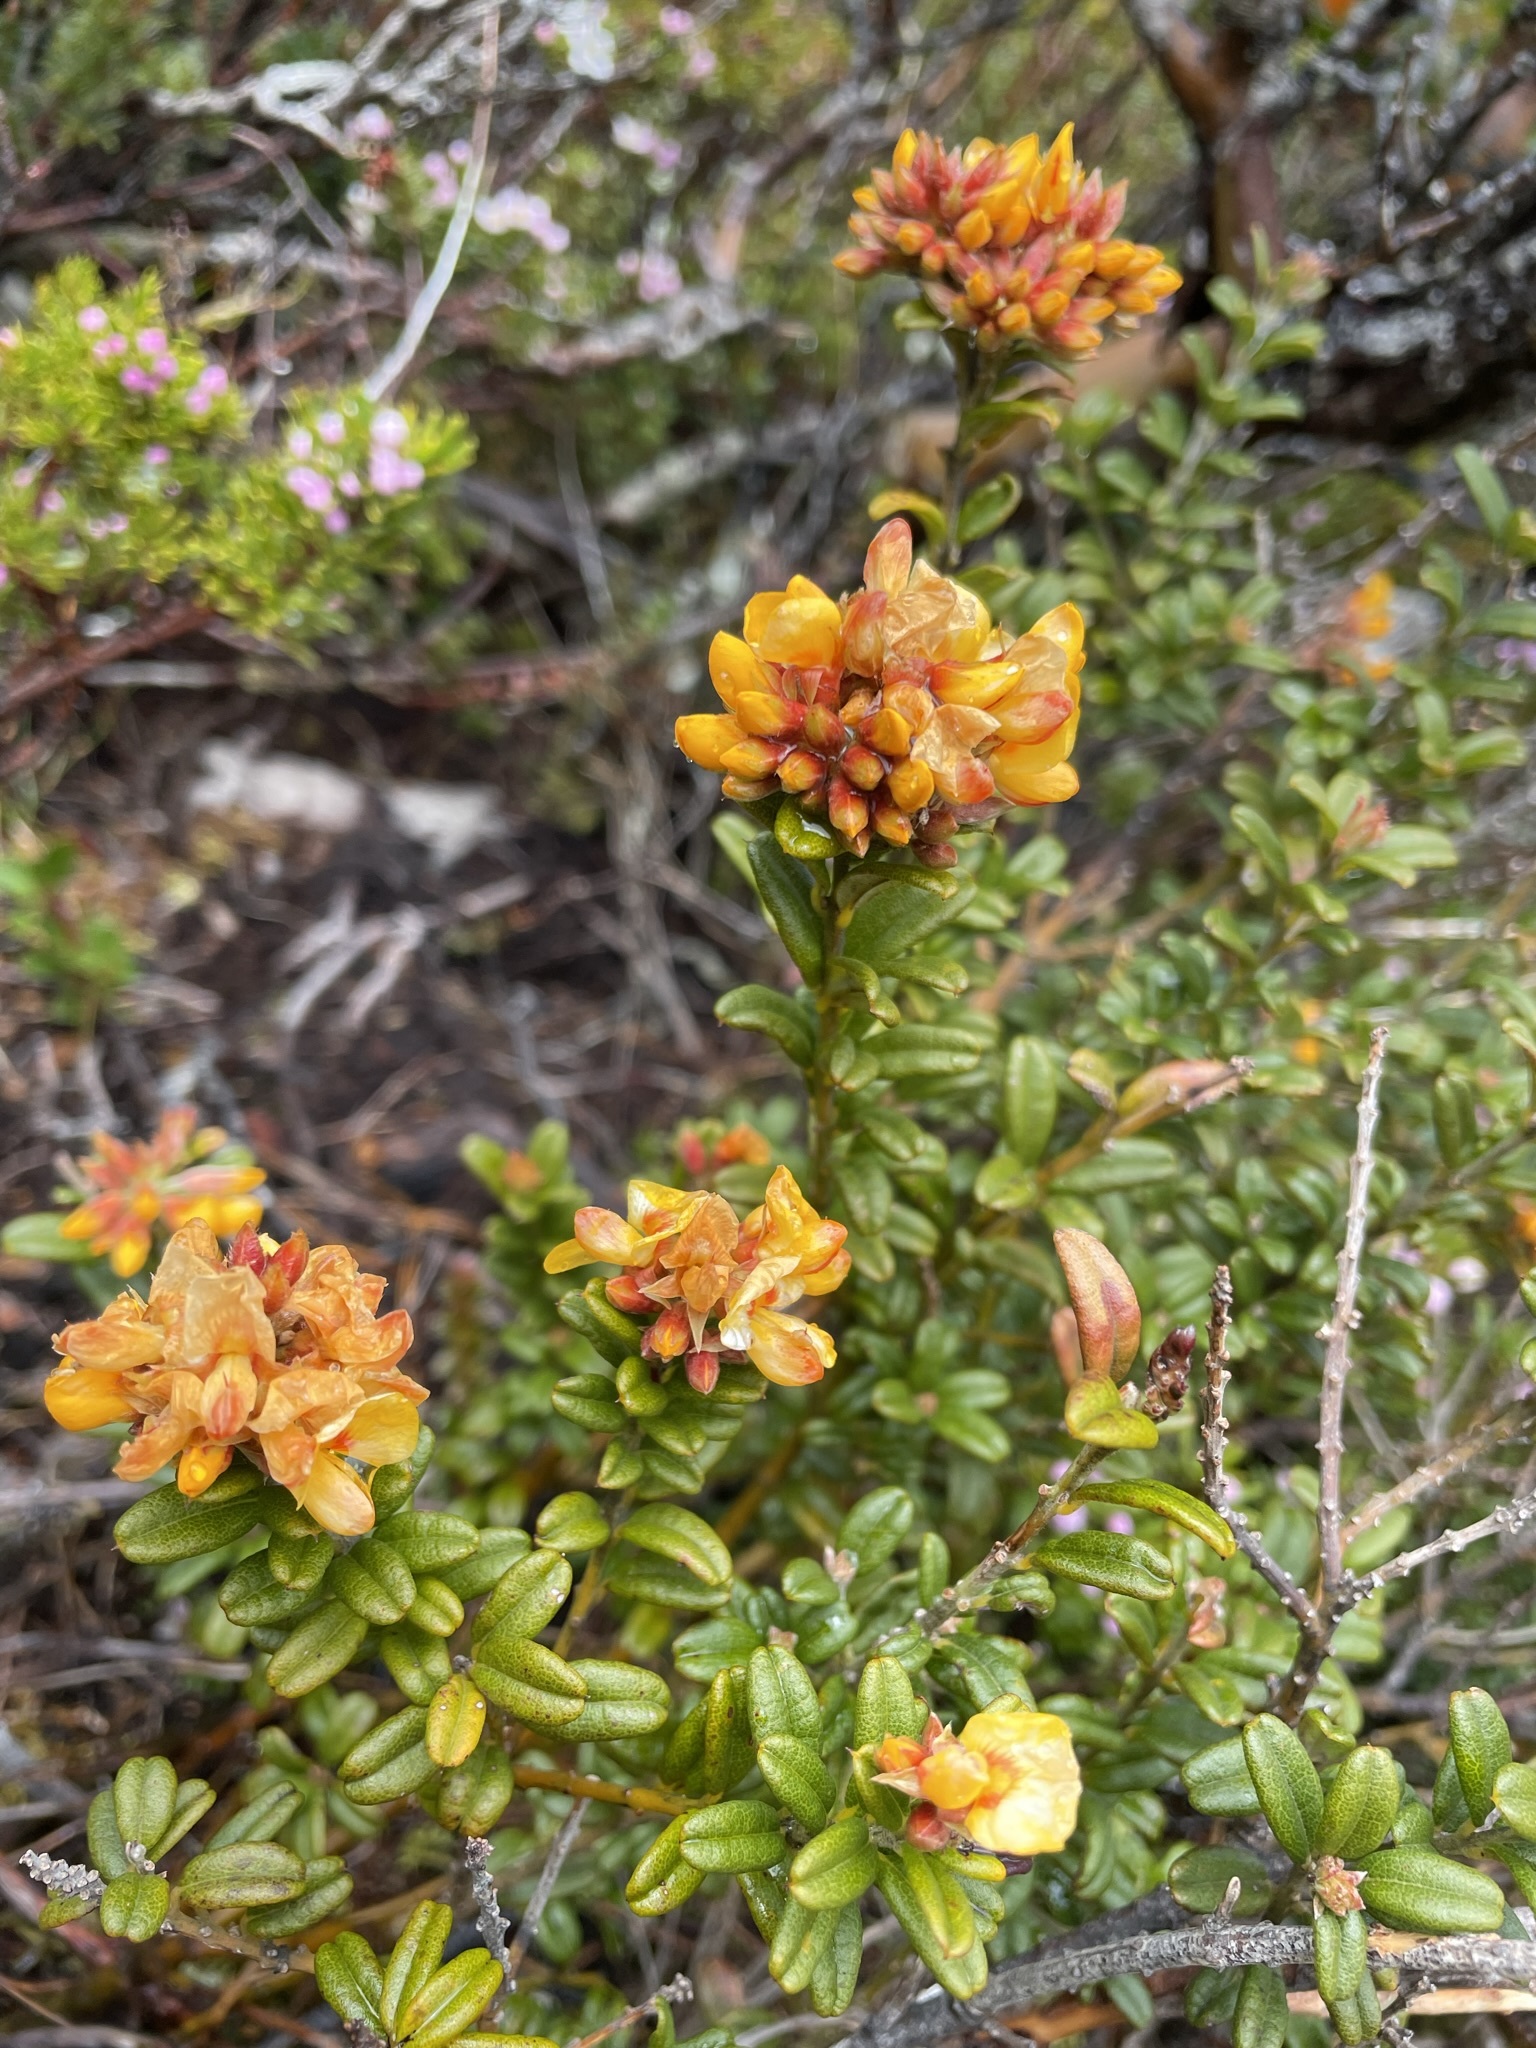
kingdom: Plantae
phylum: Tracheophyta
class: Magnoliopsida
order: Fabales
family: Fabaceae
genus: Oxylobium
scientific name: Oxylobium ellipticum
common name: Golden shaggy-pea
